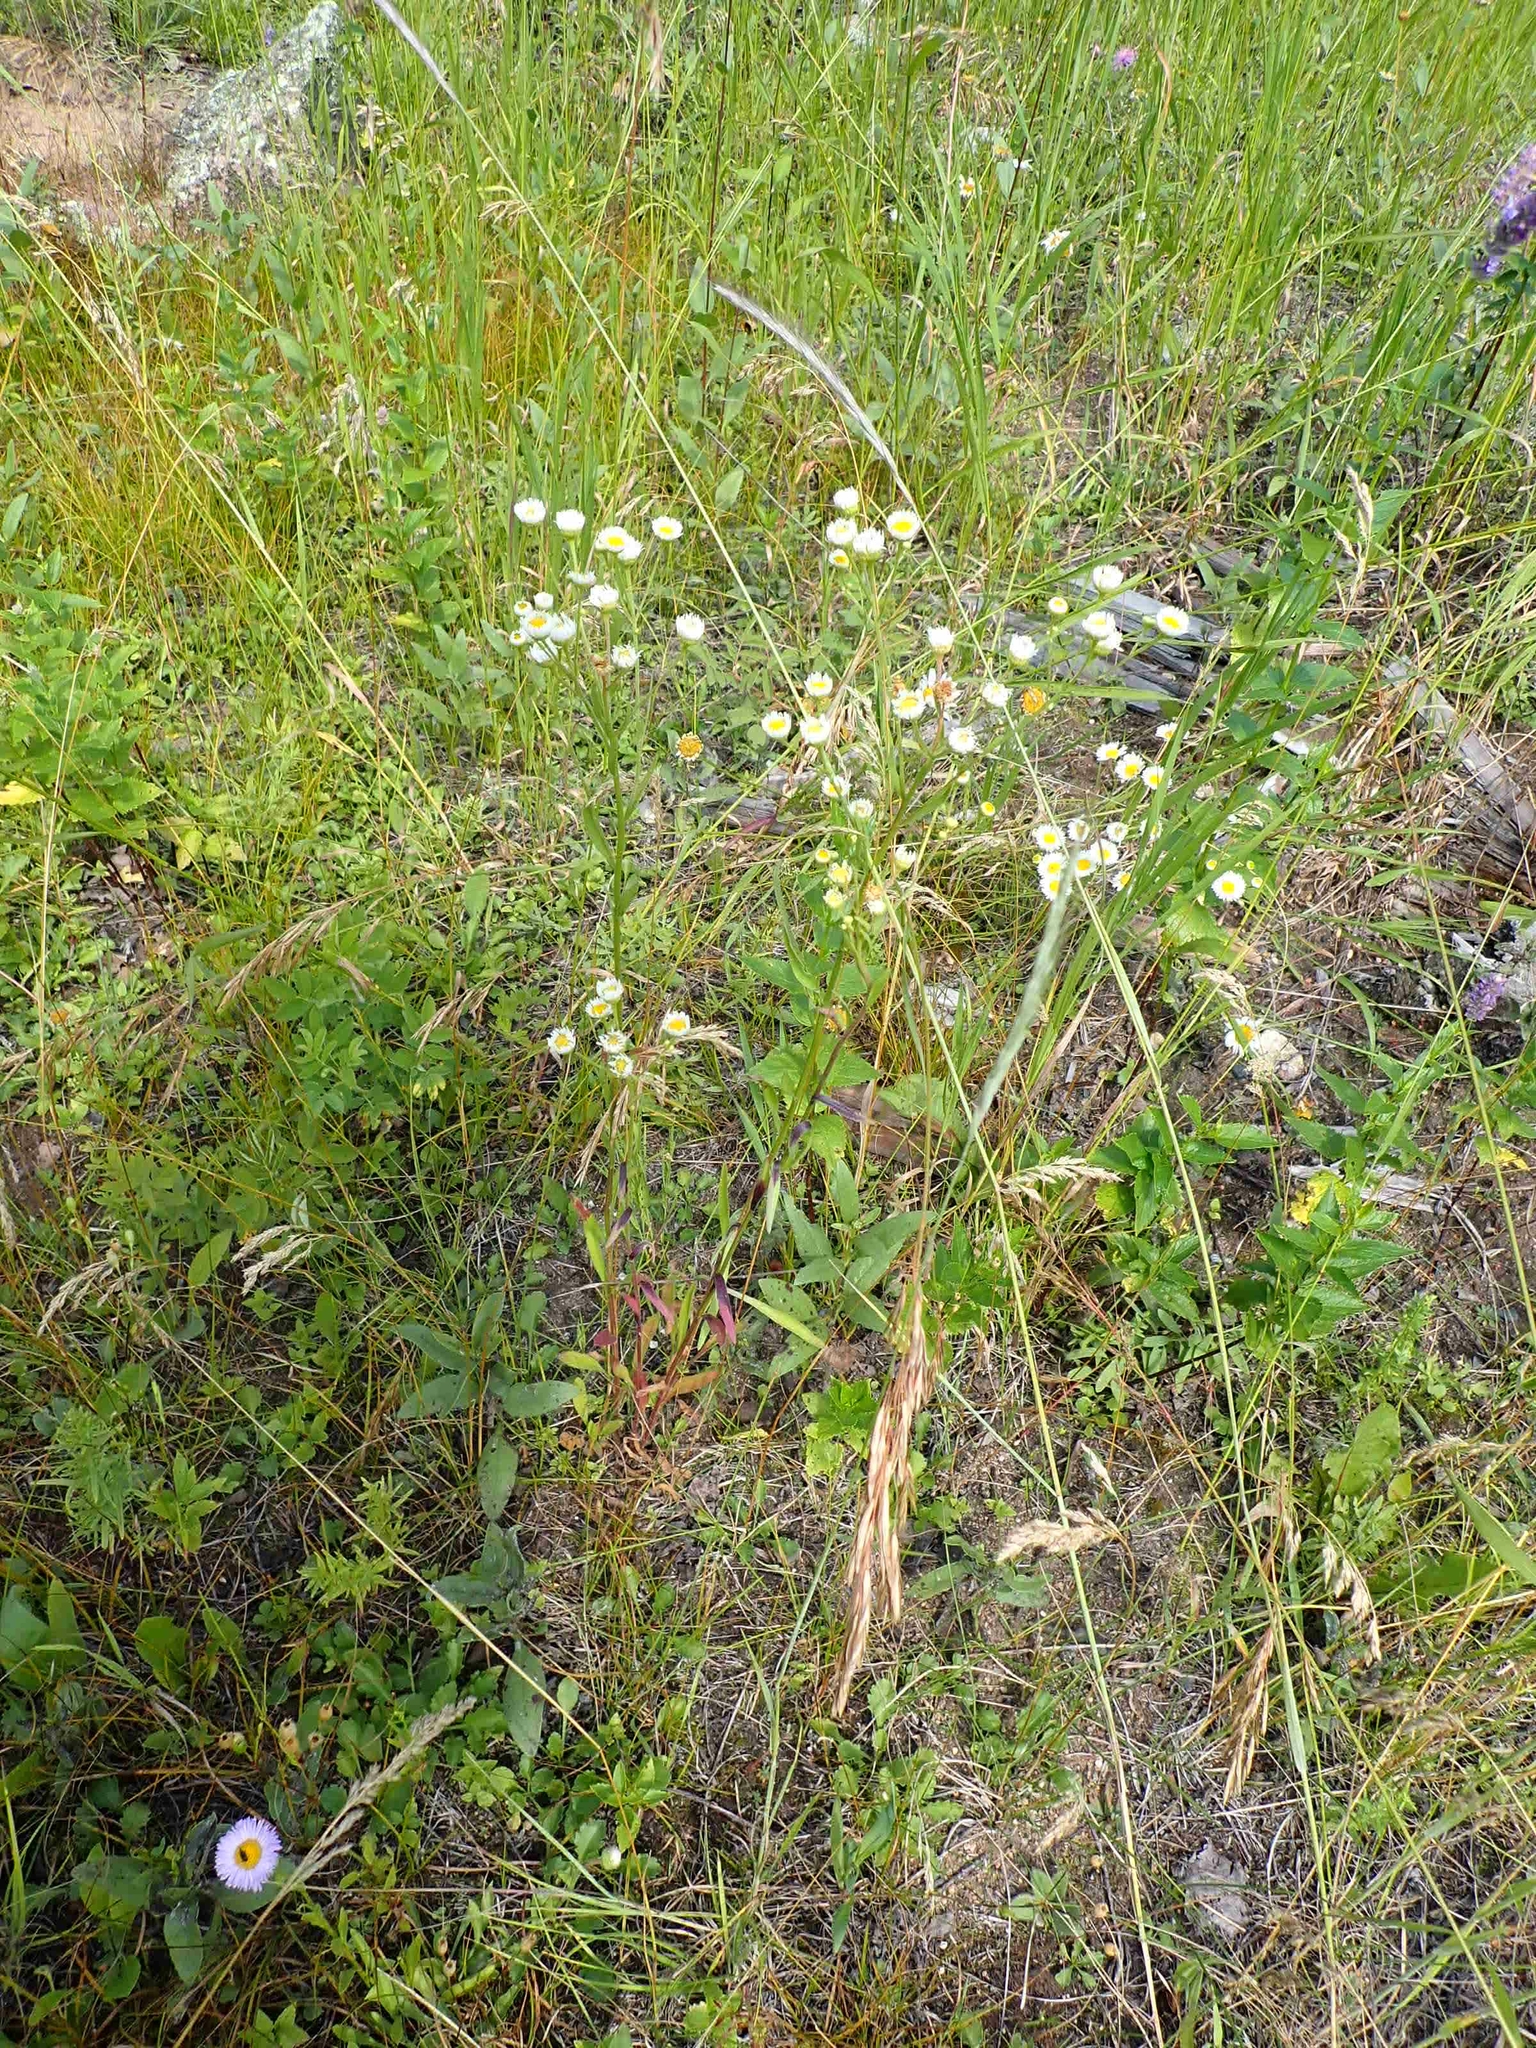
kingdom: Plantae
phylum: Tracheophyta
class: Magnoliopsida
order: Asterales
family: Asteraceae
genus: Erigeron
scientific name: Erigeron strigosus
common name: Common eastern fleabane
